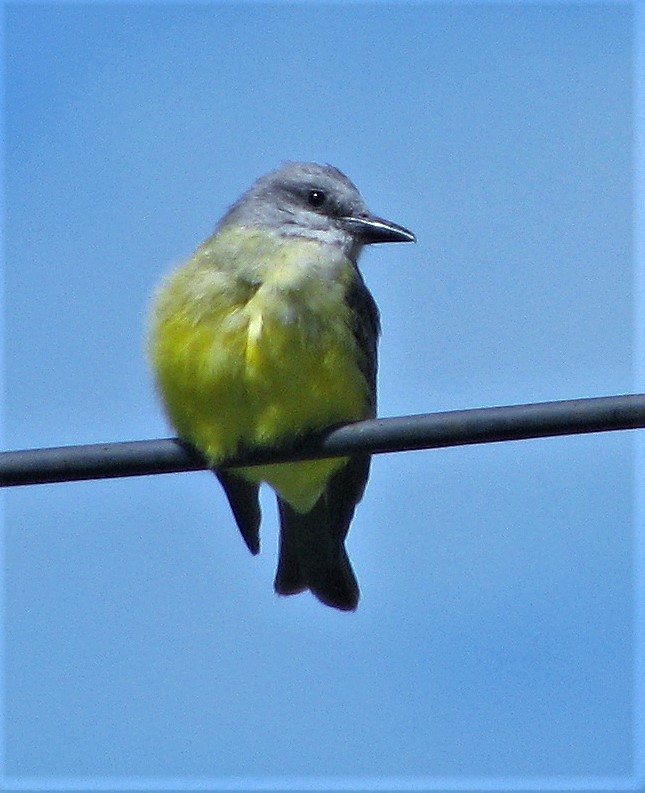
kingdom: Animalia
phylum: Chordata
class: Aves
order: Passeriformes
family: Tyrannidae
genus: Tyrannus
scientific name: Tyrannus melancholicus
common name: Tropical kingbird
